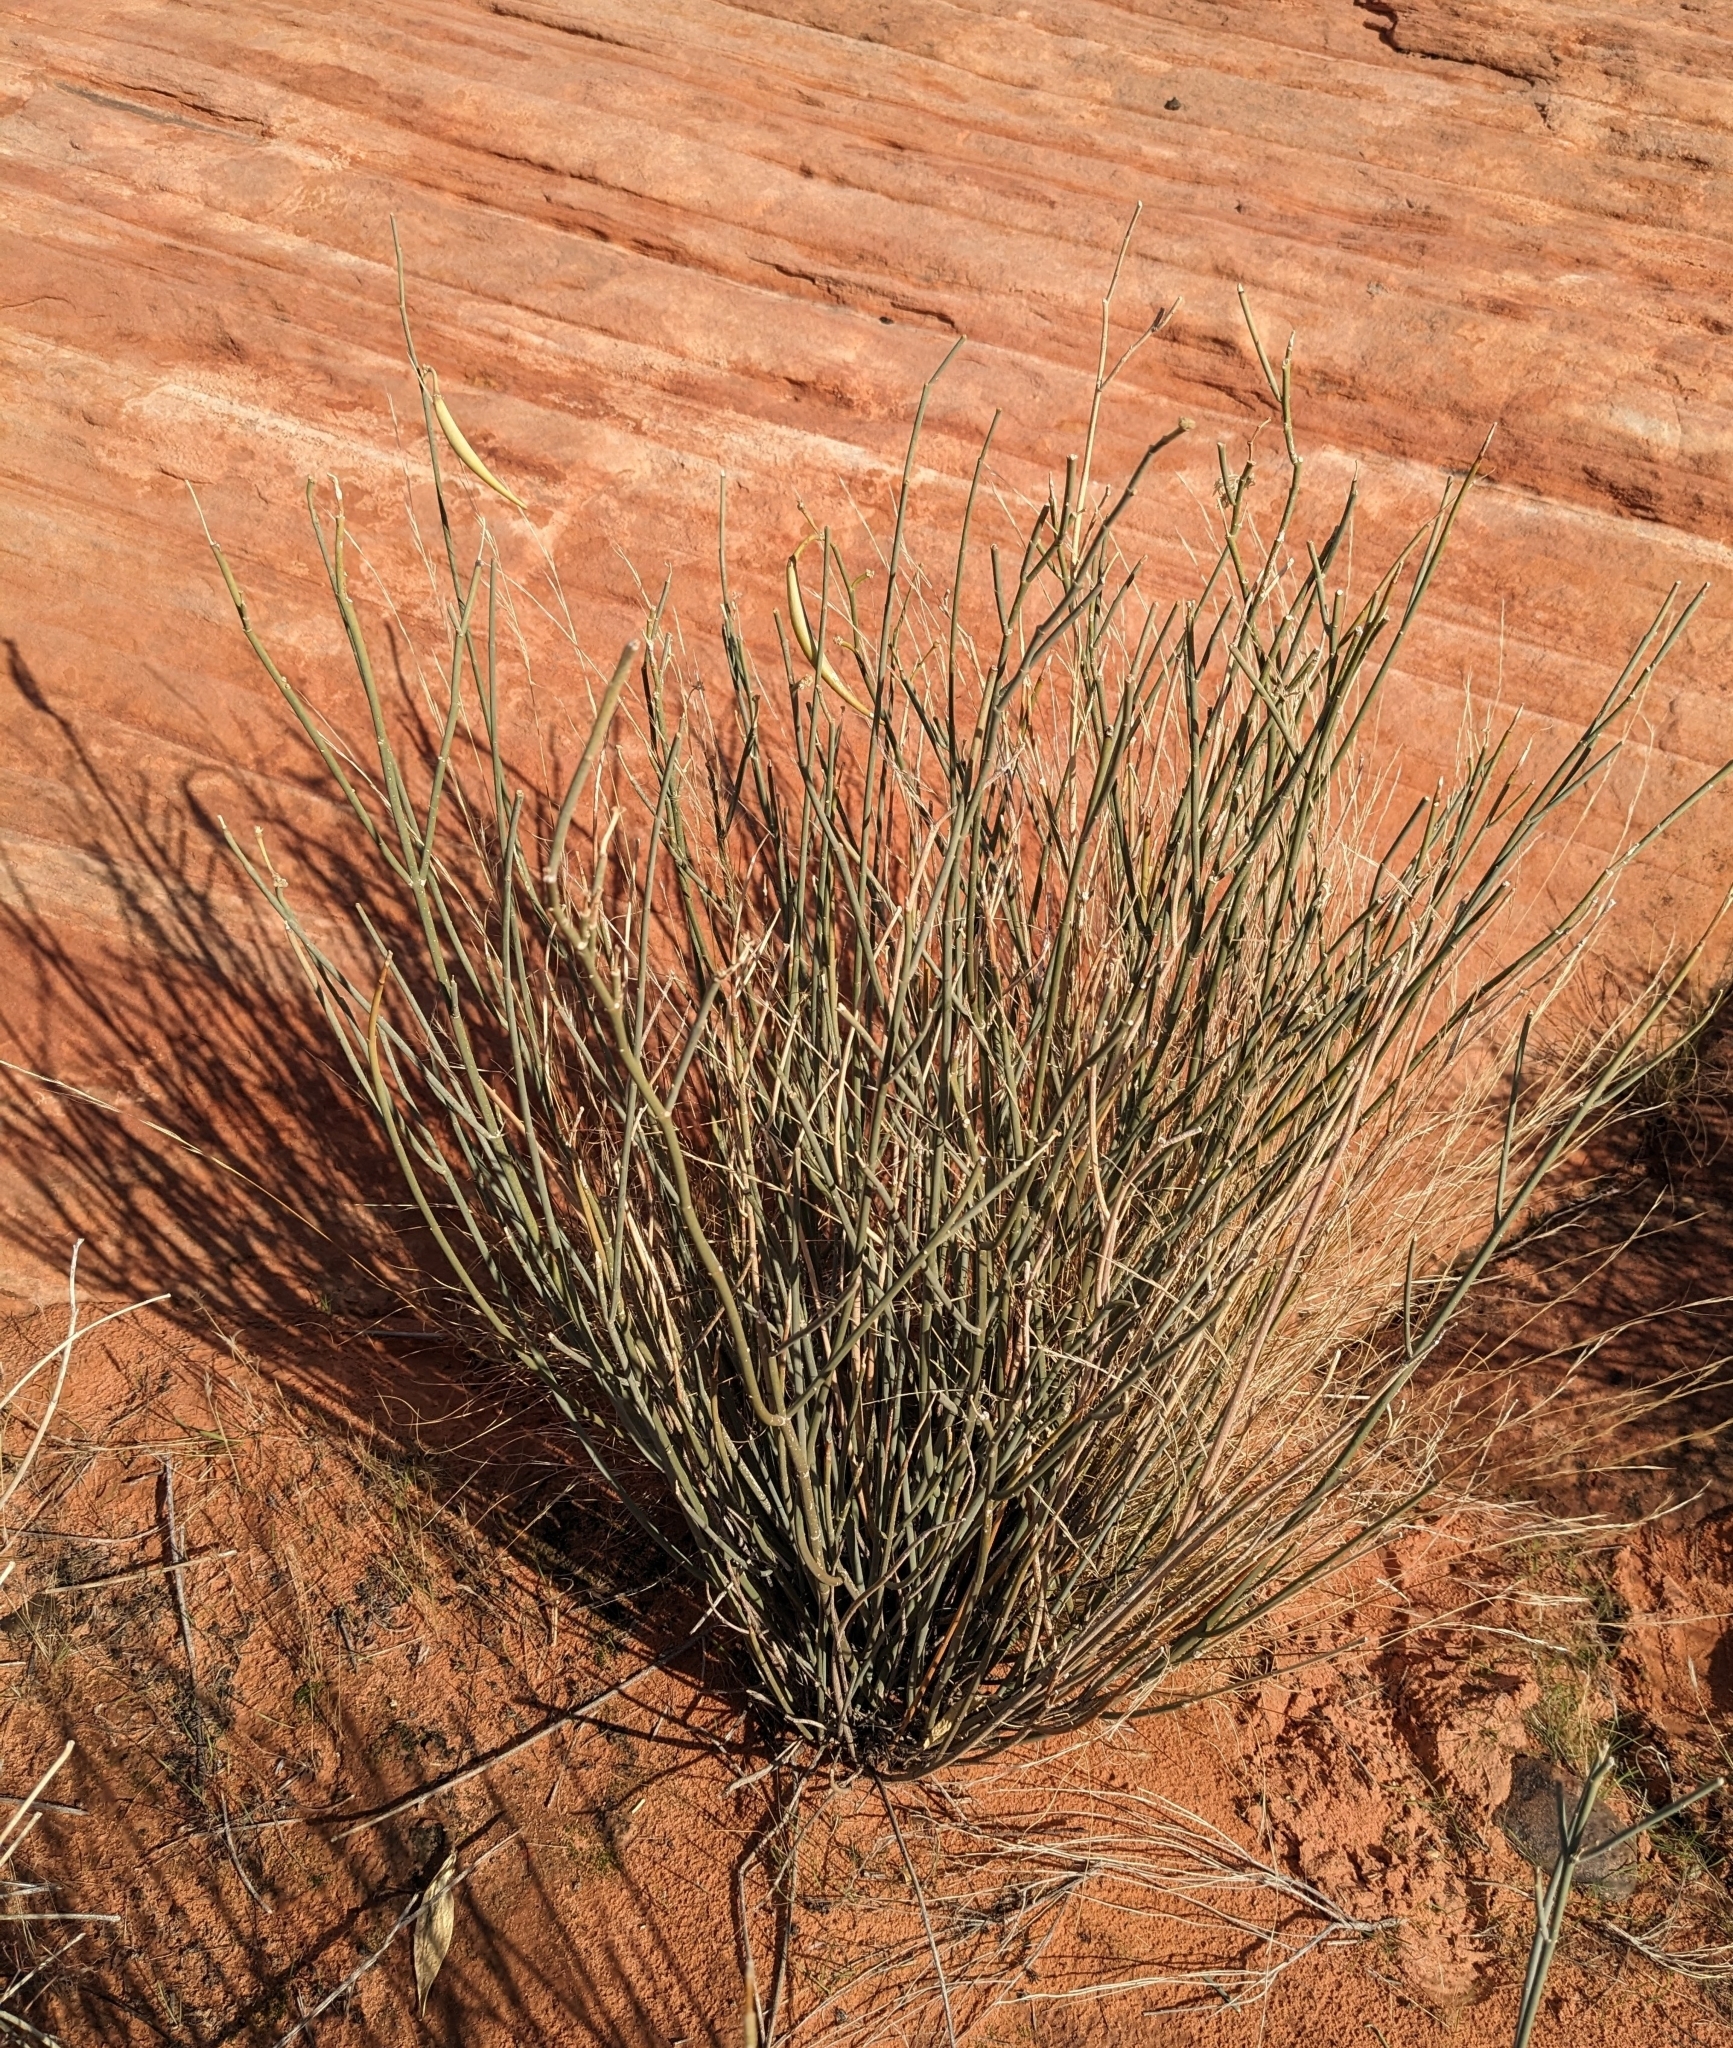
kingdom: Plantae
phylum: Tracheophyta
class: Magnoliopsida
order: Gentianales
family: Apocynaceae
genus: Asclepias
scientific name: Asclepias subulata
